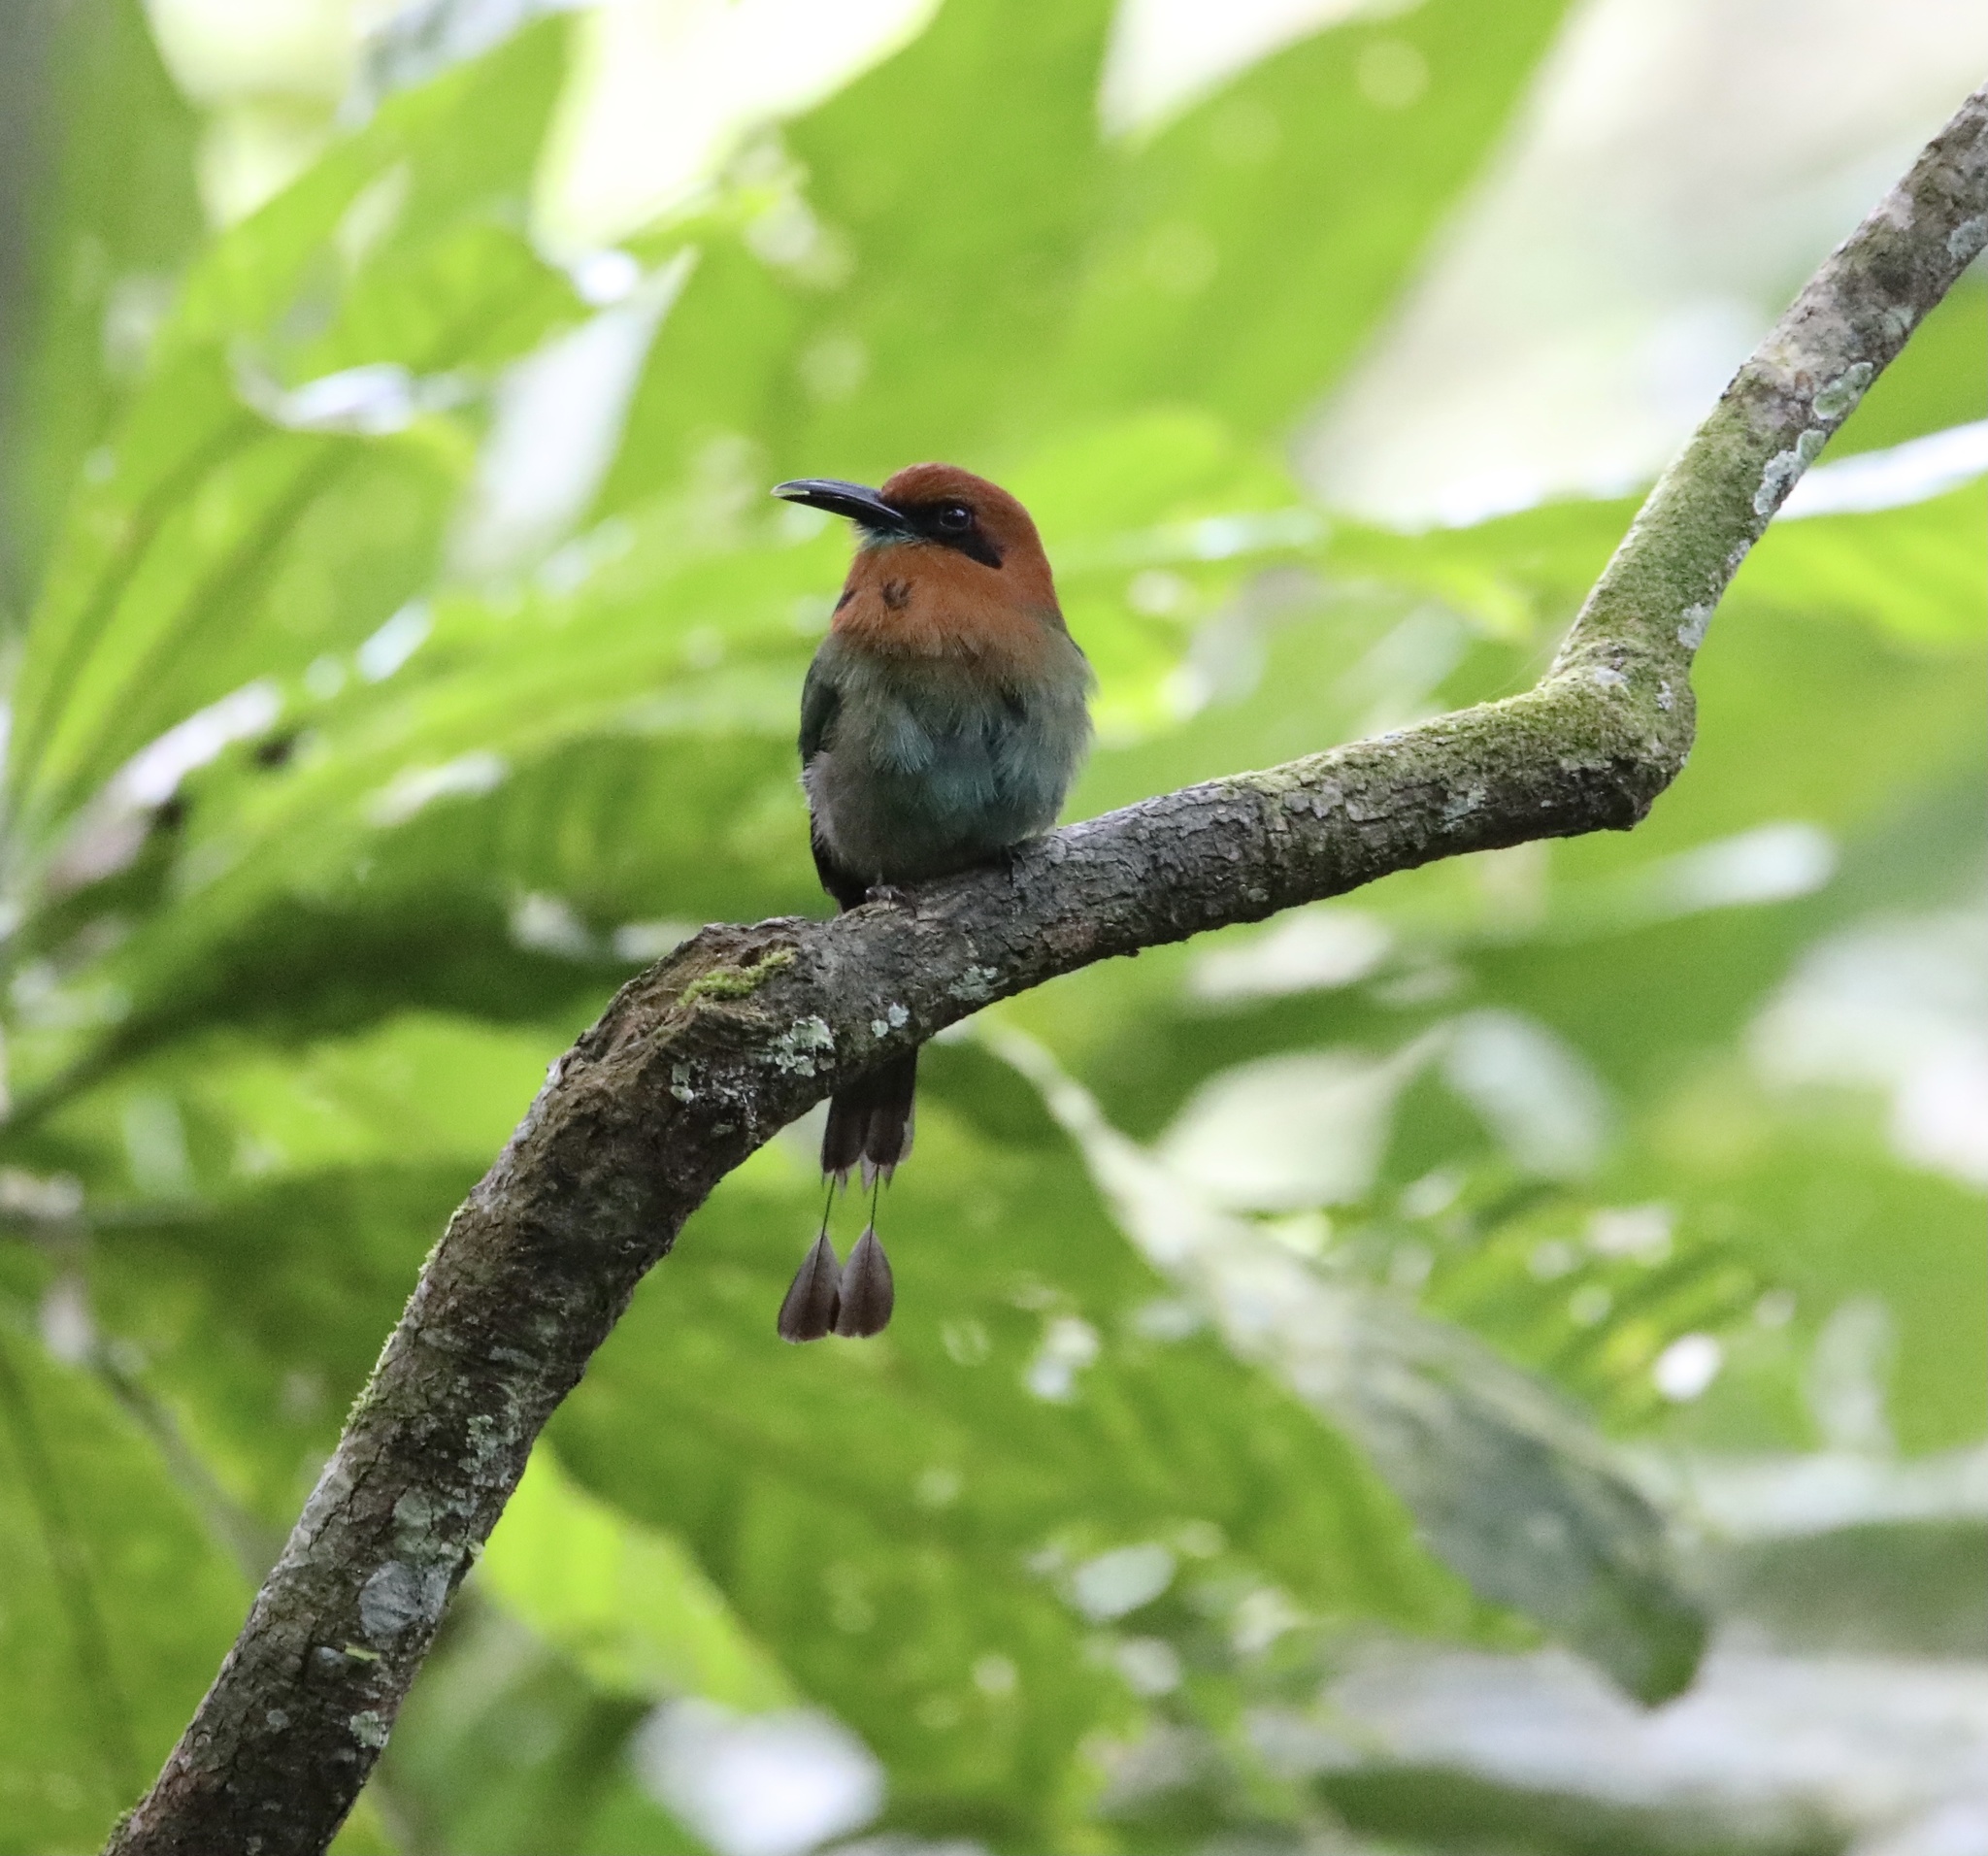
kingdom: Animalia
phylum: Chordata
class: Aves
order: Coraciiformes
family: Momotidae
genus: Electron
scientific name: Electron platyrhynchum
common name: Broad-billed motmot
